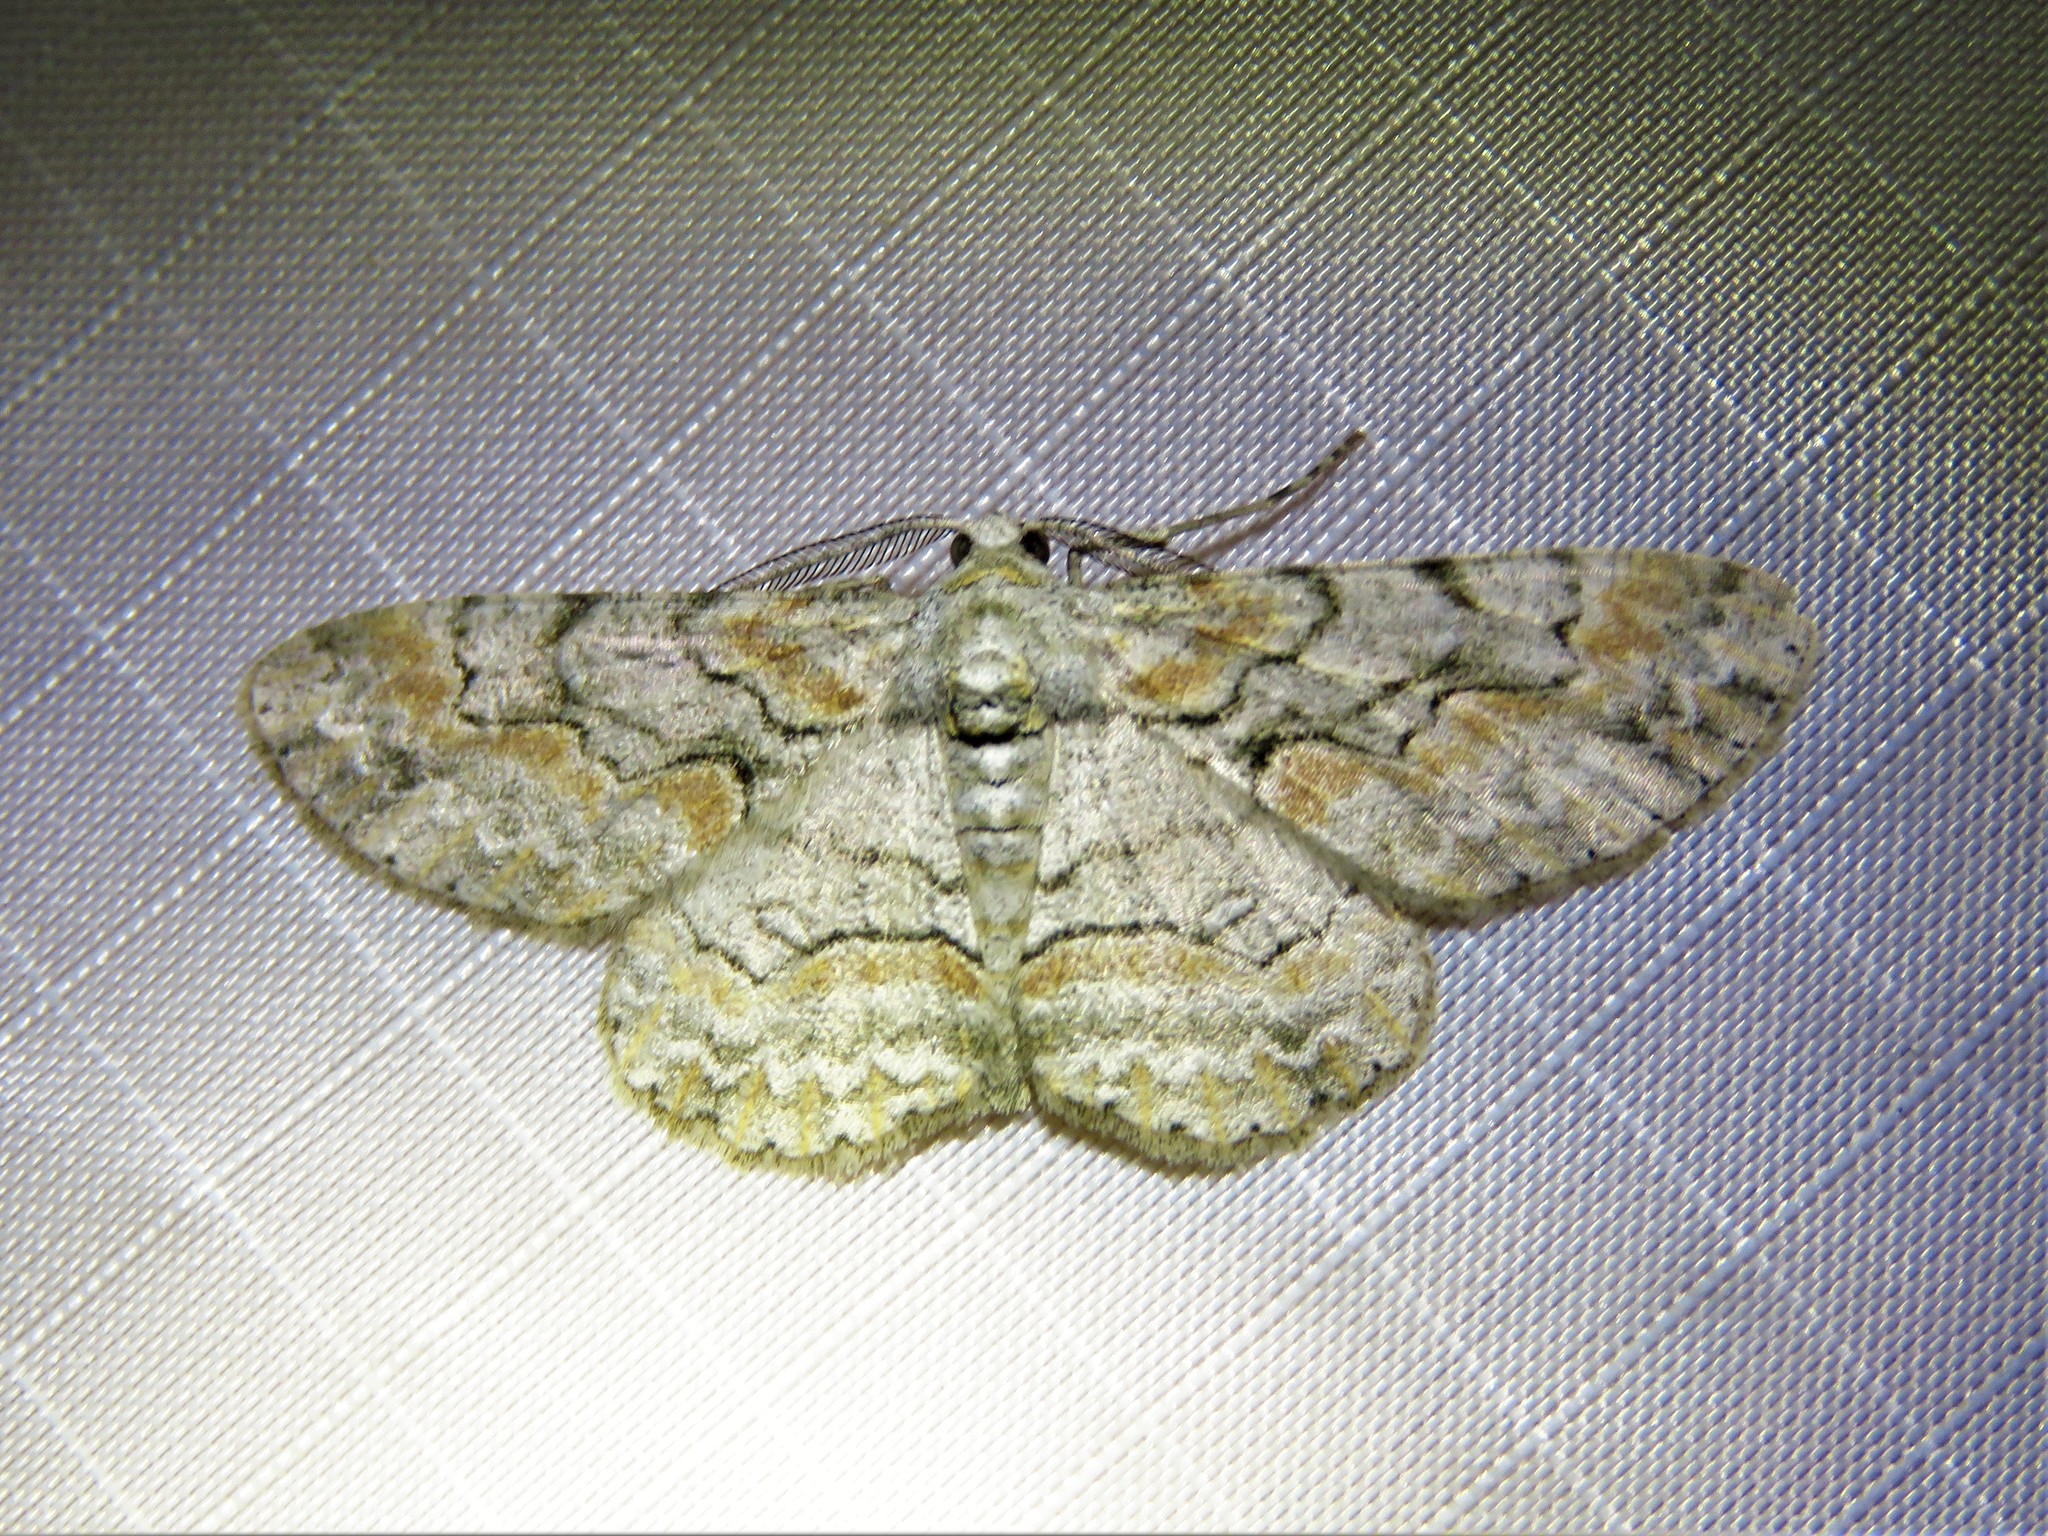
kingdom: Animalia
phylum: Arthropoda
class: Insecta
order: Lepidoptera
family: Geometridae
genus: Iridopsis
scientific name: Iridopsis defectaria
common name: Brown-shaded gray
